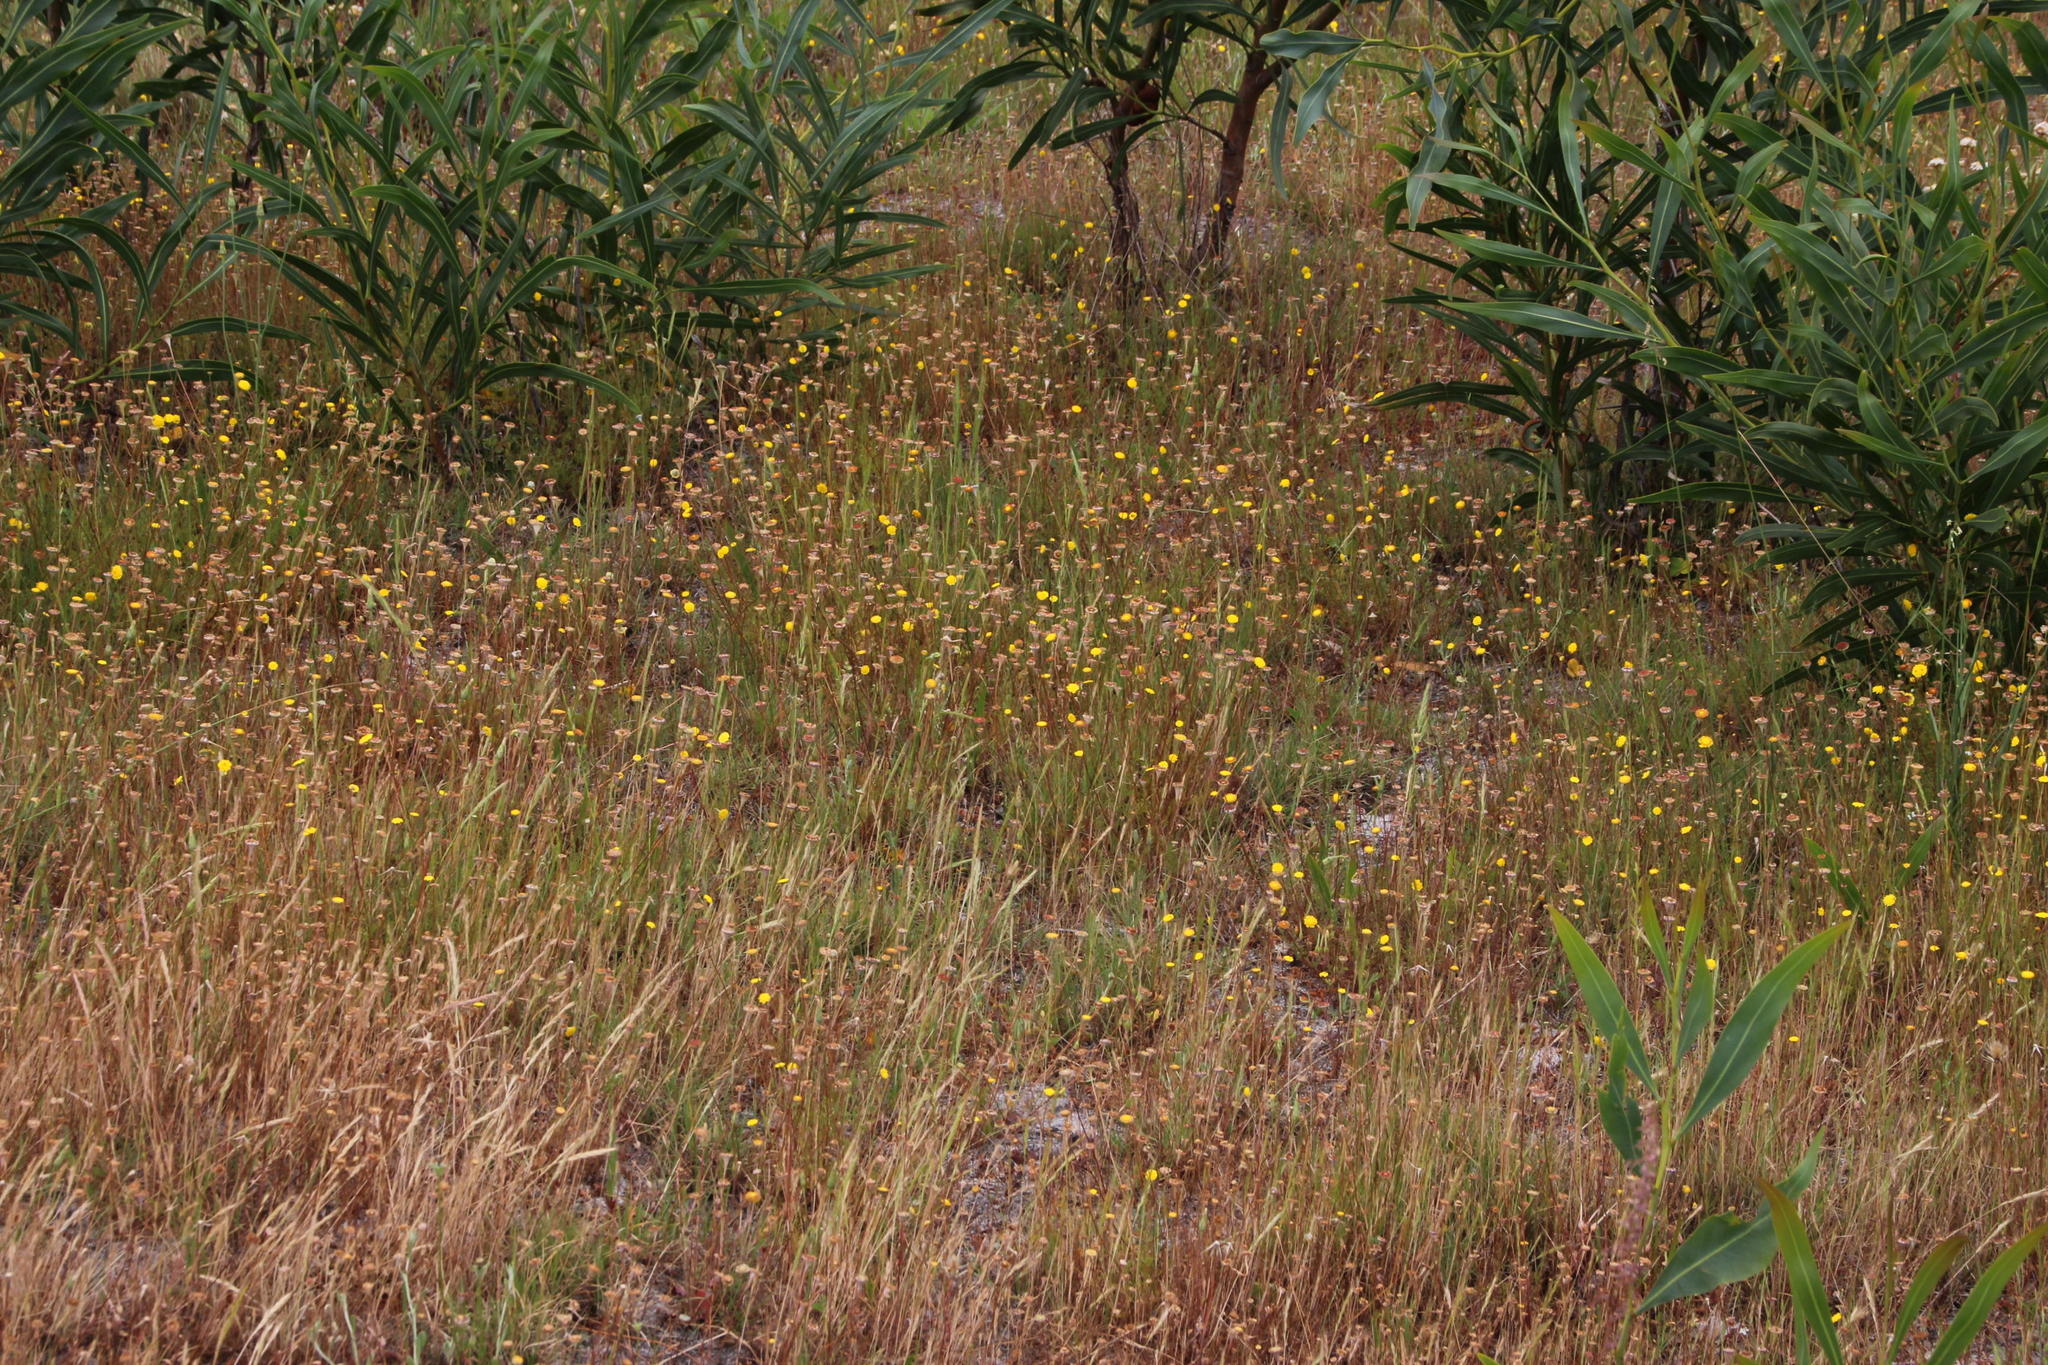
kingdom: Plantae
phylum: Tracheophyta
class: Magnoliopsida
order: Asterales
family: Asteraceae
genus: Cotula
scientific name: Cotula pruinosa
